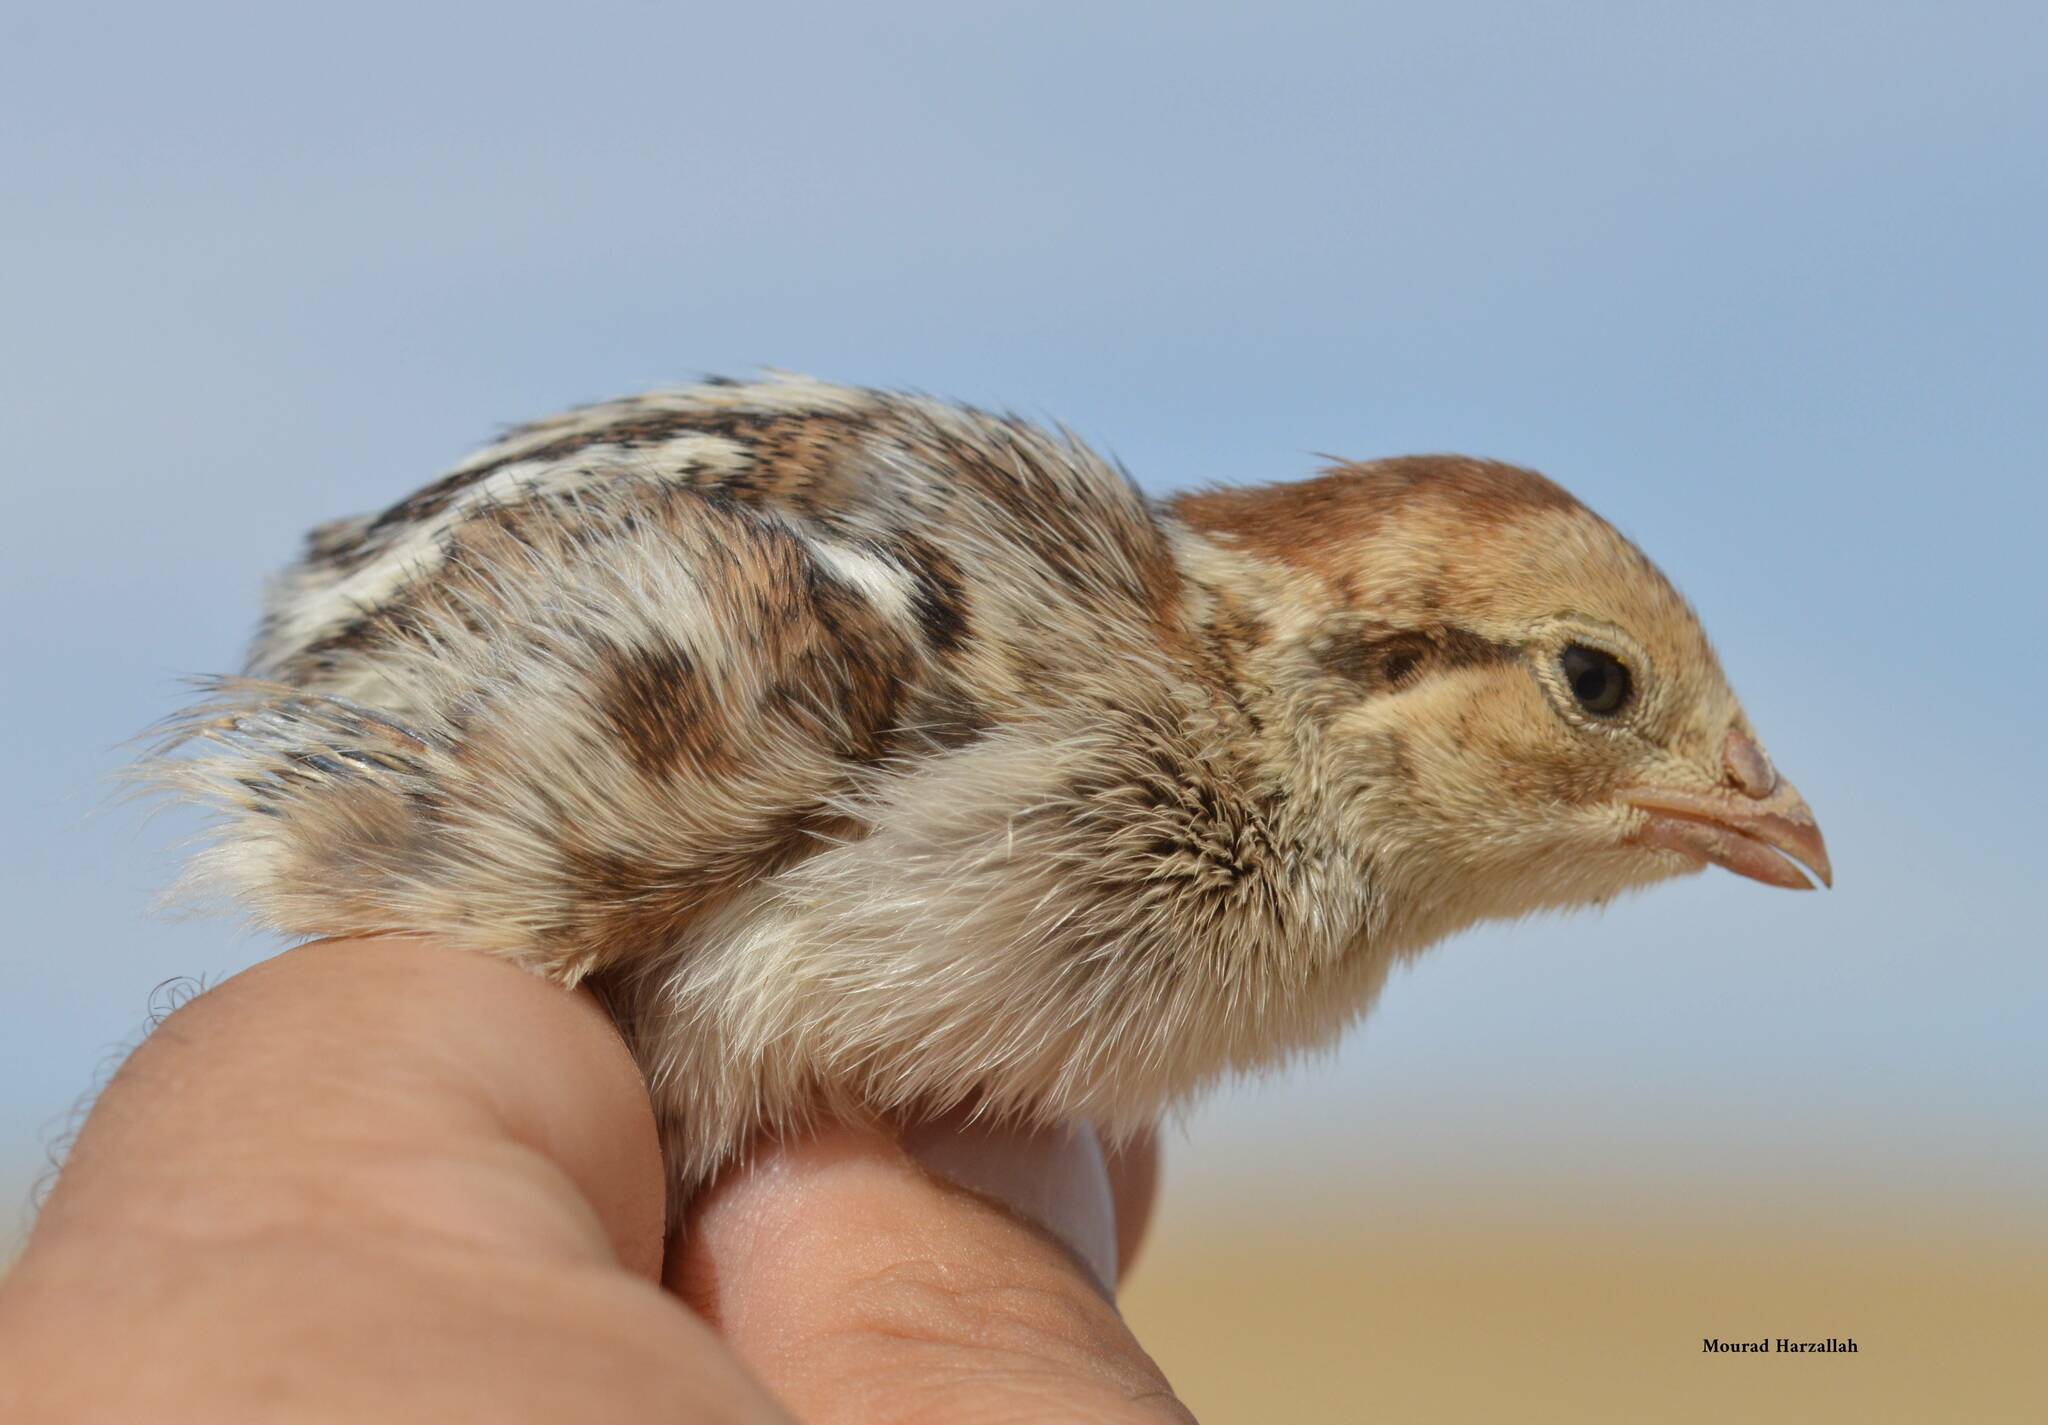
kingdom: Animalia
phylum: Chordata
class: Aves
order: Galliformes
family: Phasianidae
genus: Alectoris
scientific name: Alectoris barbara
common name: Barbary partridge
